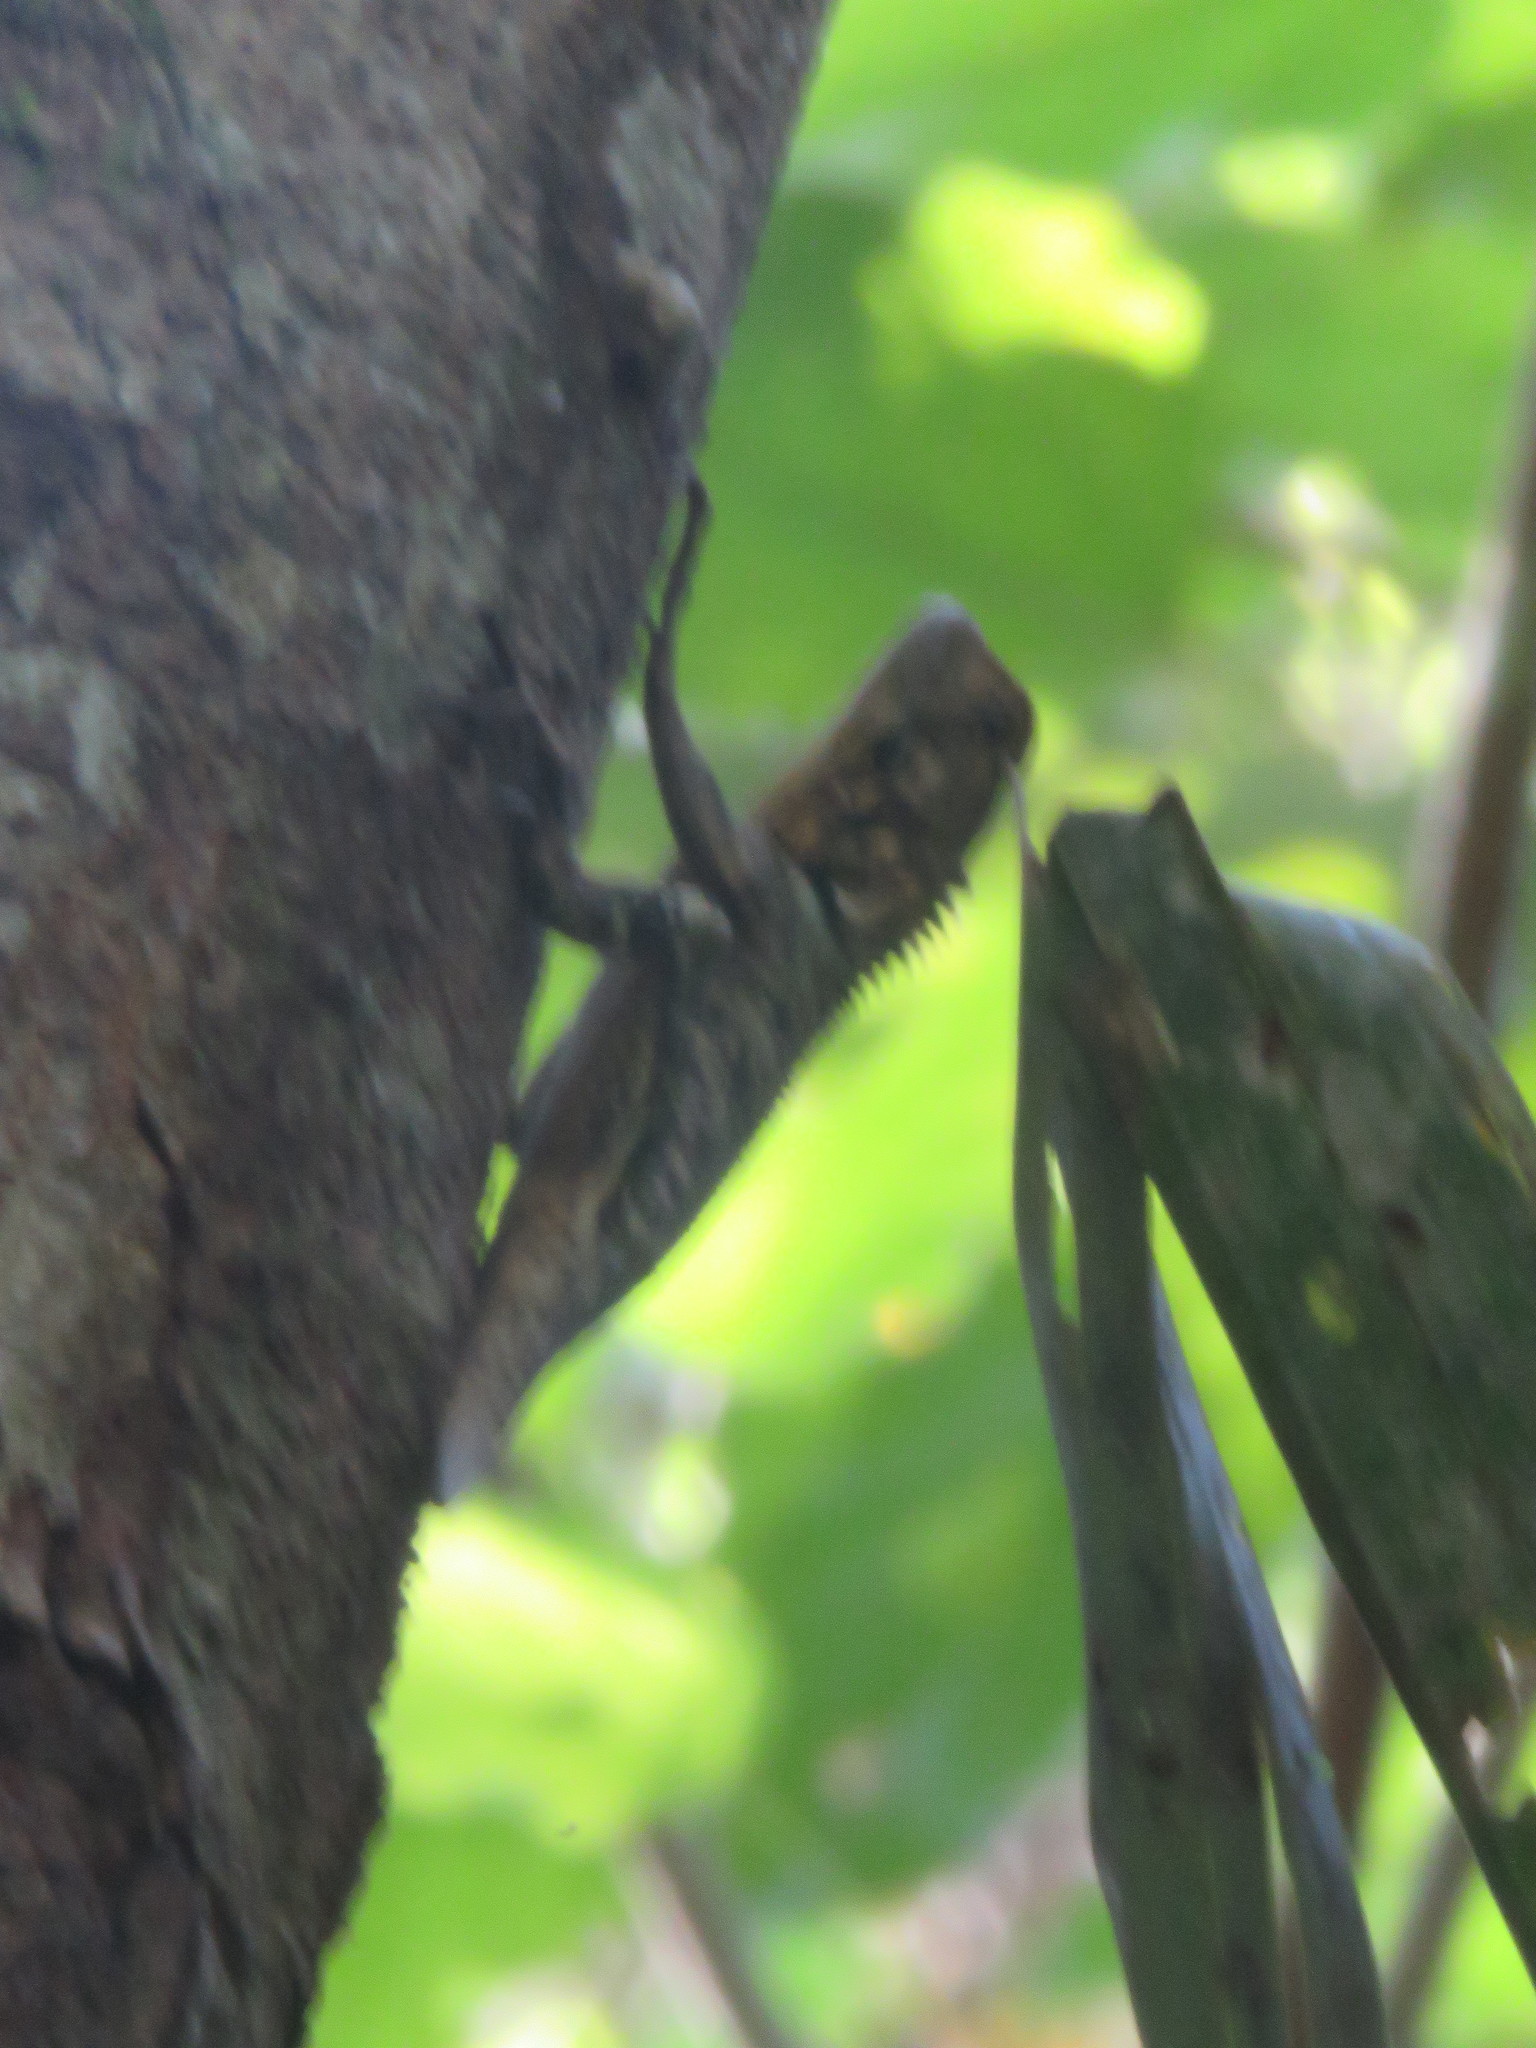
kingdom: Animalia
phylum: Chordata
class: Squamata
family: Tropiduridae
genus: Plica
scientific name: Plica umbra
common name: Harlequin racerunner
